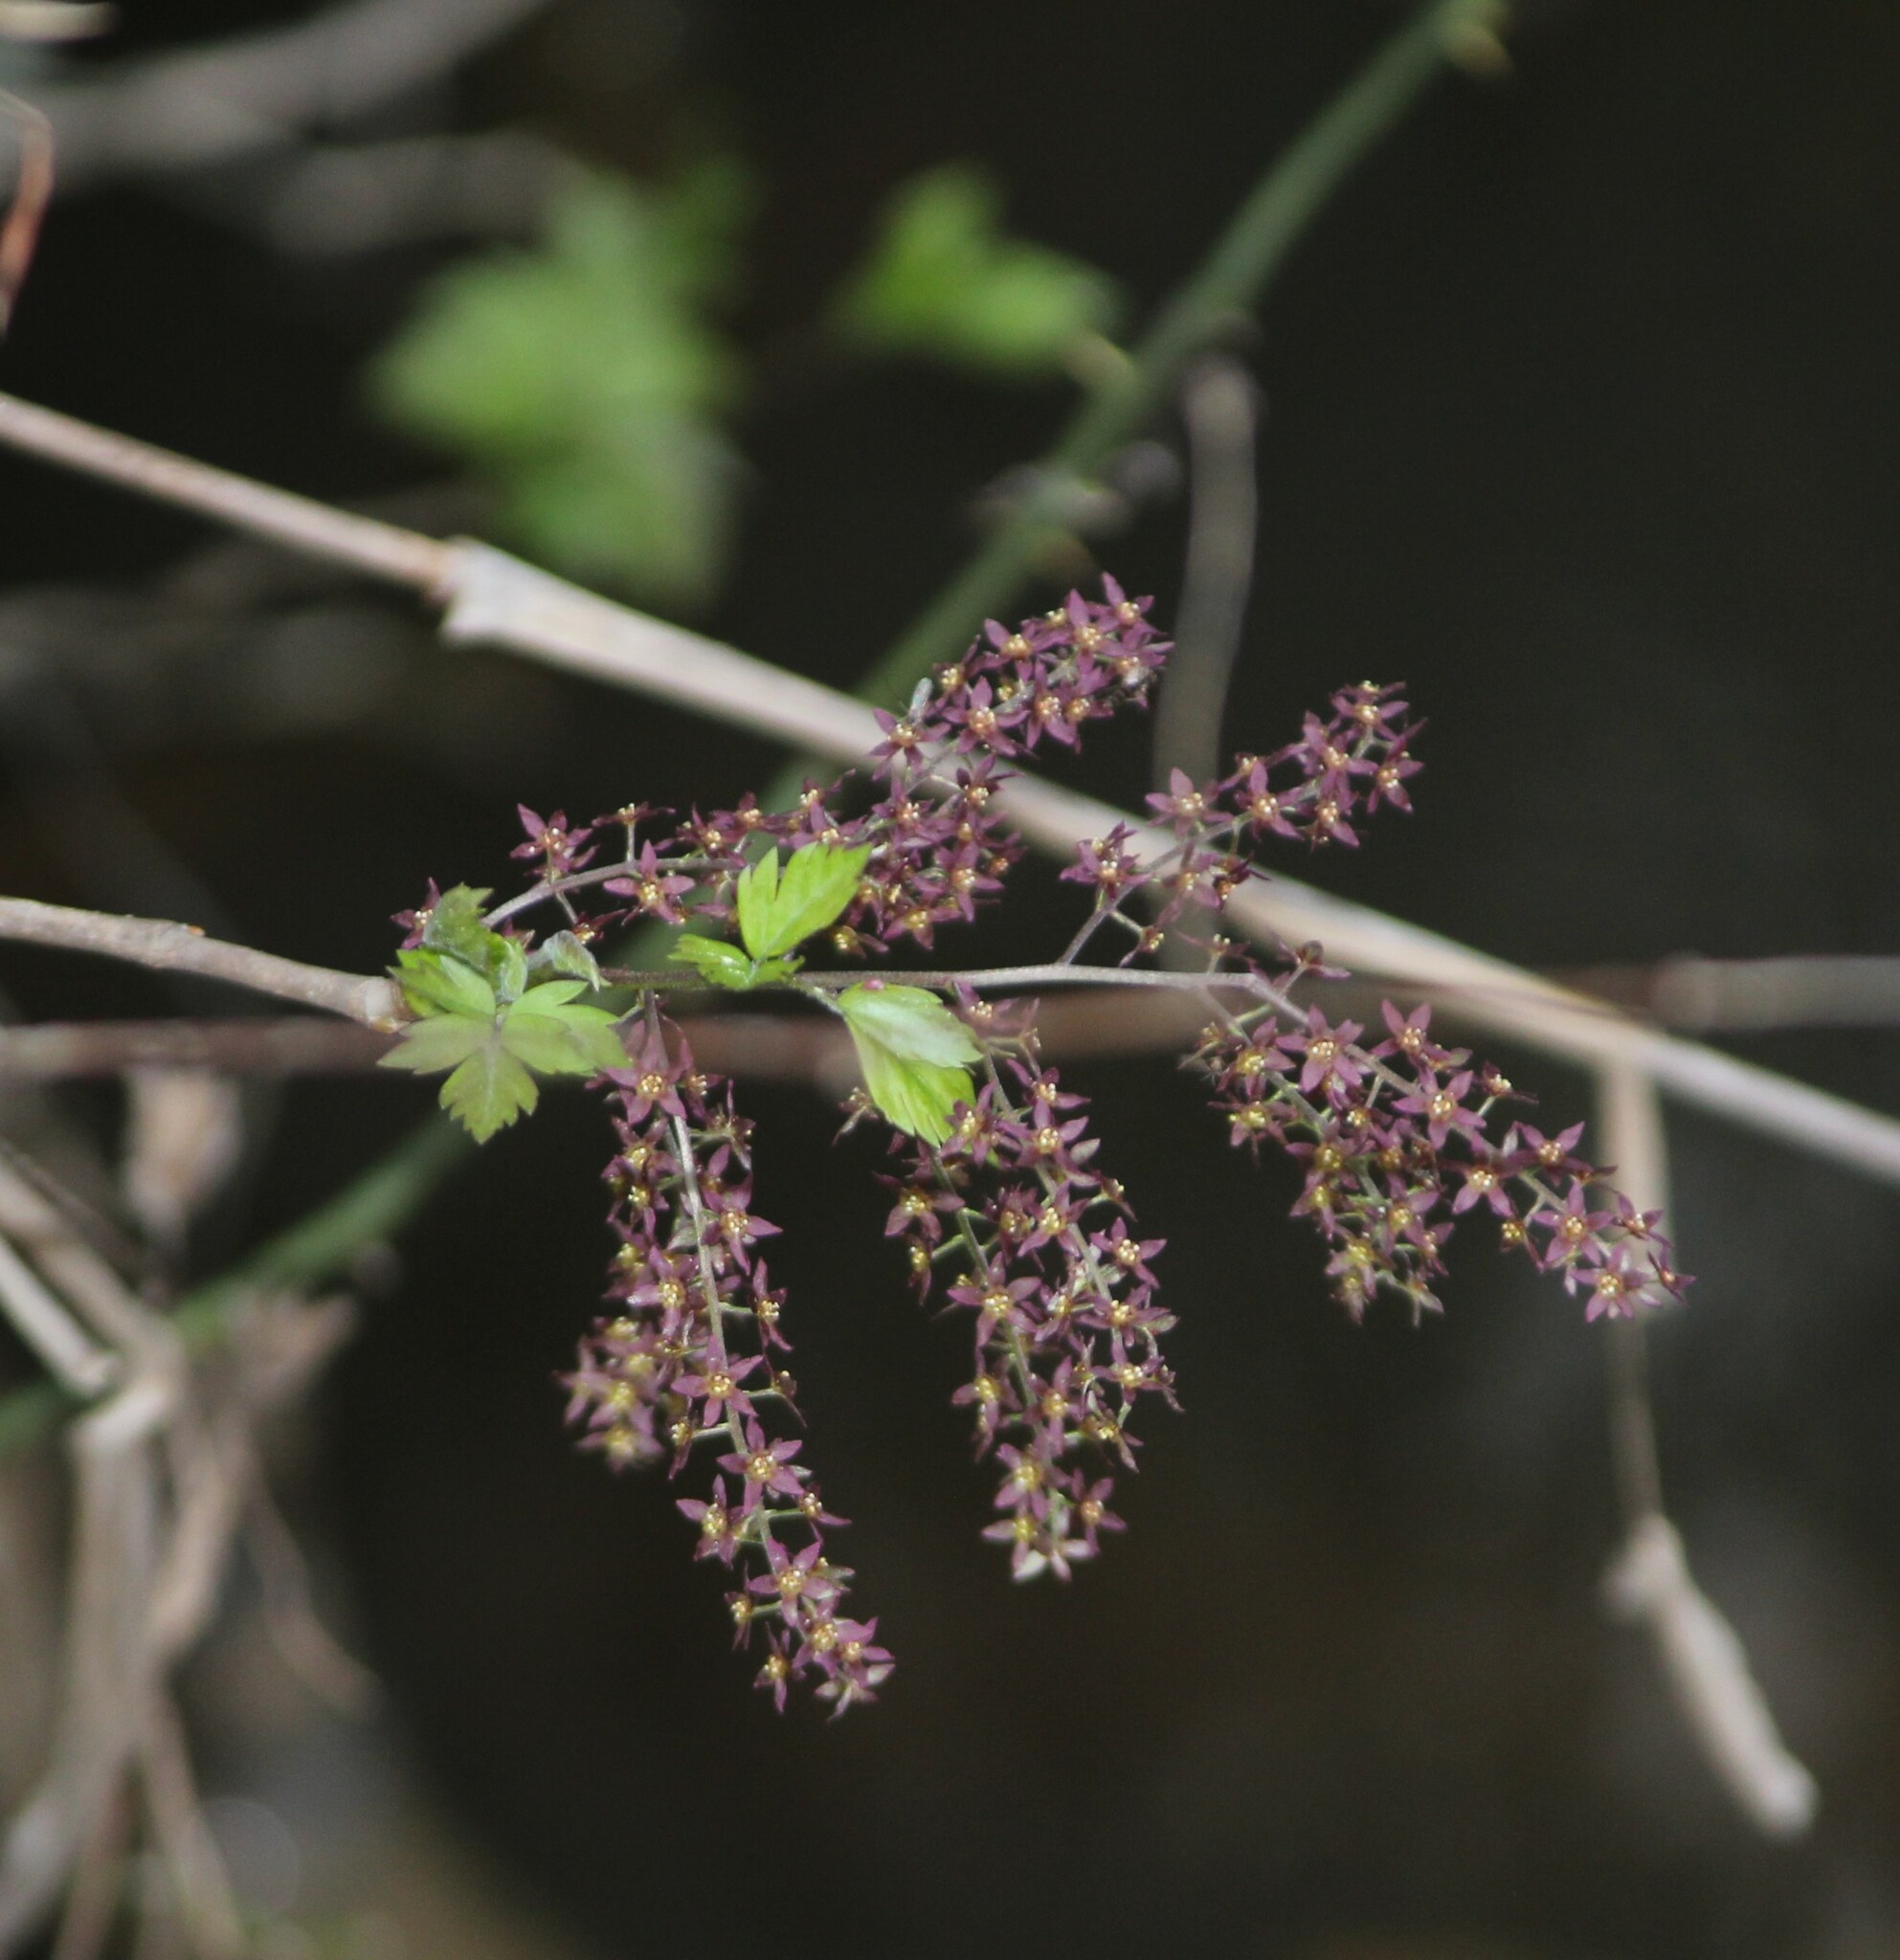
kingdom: Plantae
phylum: Tracheophyta
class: Magnoliopsida
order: Ranunculales
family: Ranunculaceae
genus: Xanthorhiza
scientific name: Xanthorhiza simplicissima
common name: Yellowroot
